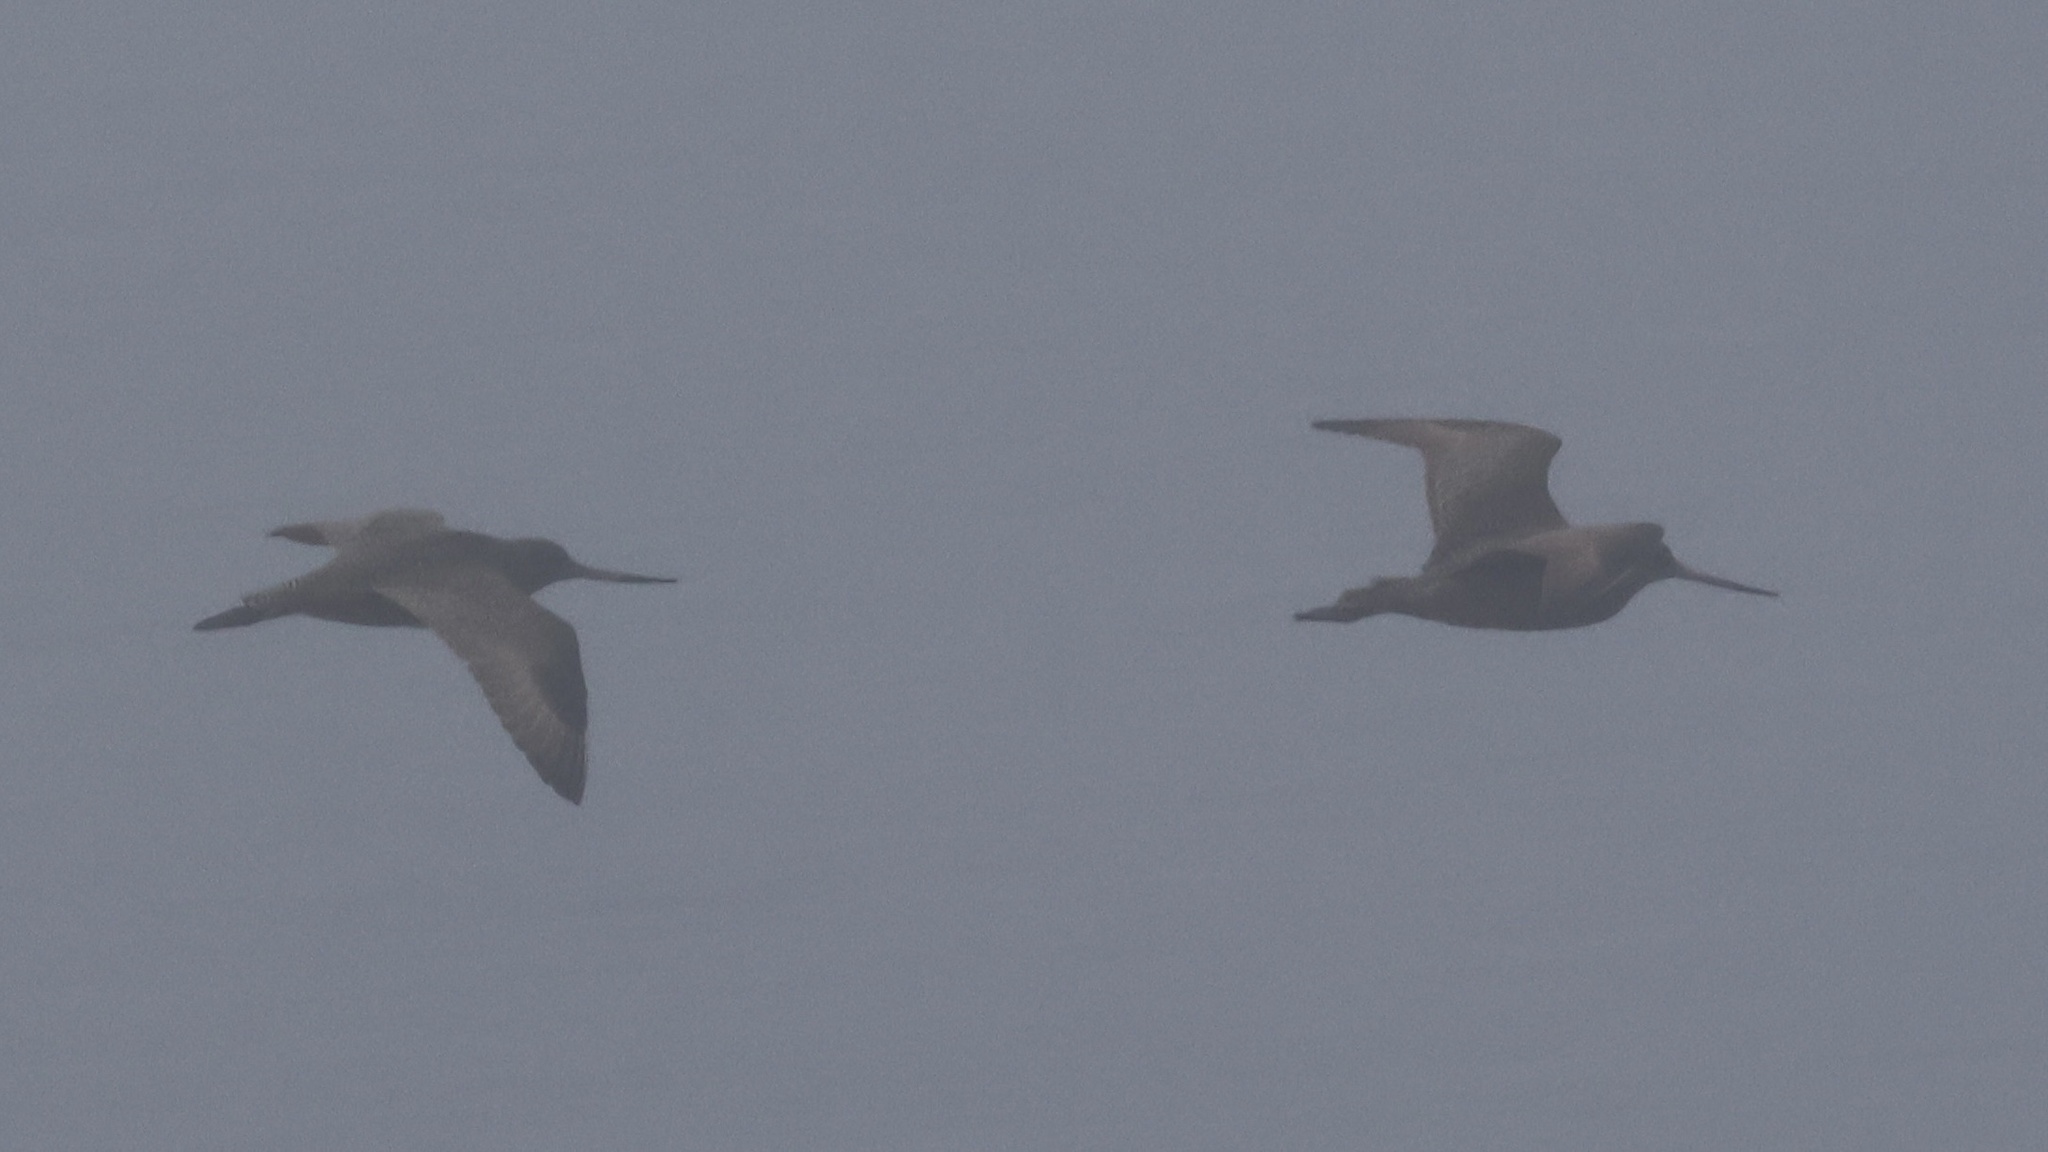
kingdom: Animalia
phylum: Chordata
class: Aves
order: Charadriiformes
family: Scolopacidae
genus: Limosa
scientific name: Limosa fedoa
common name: Marbled godwit
